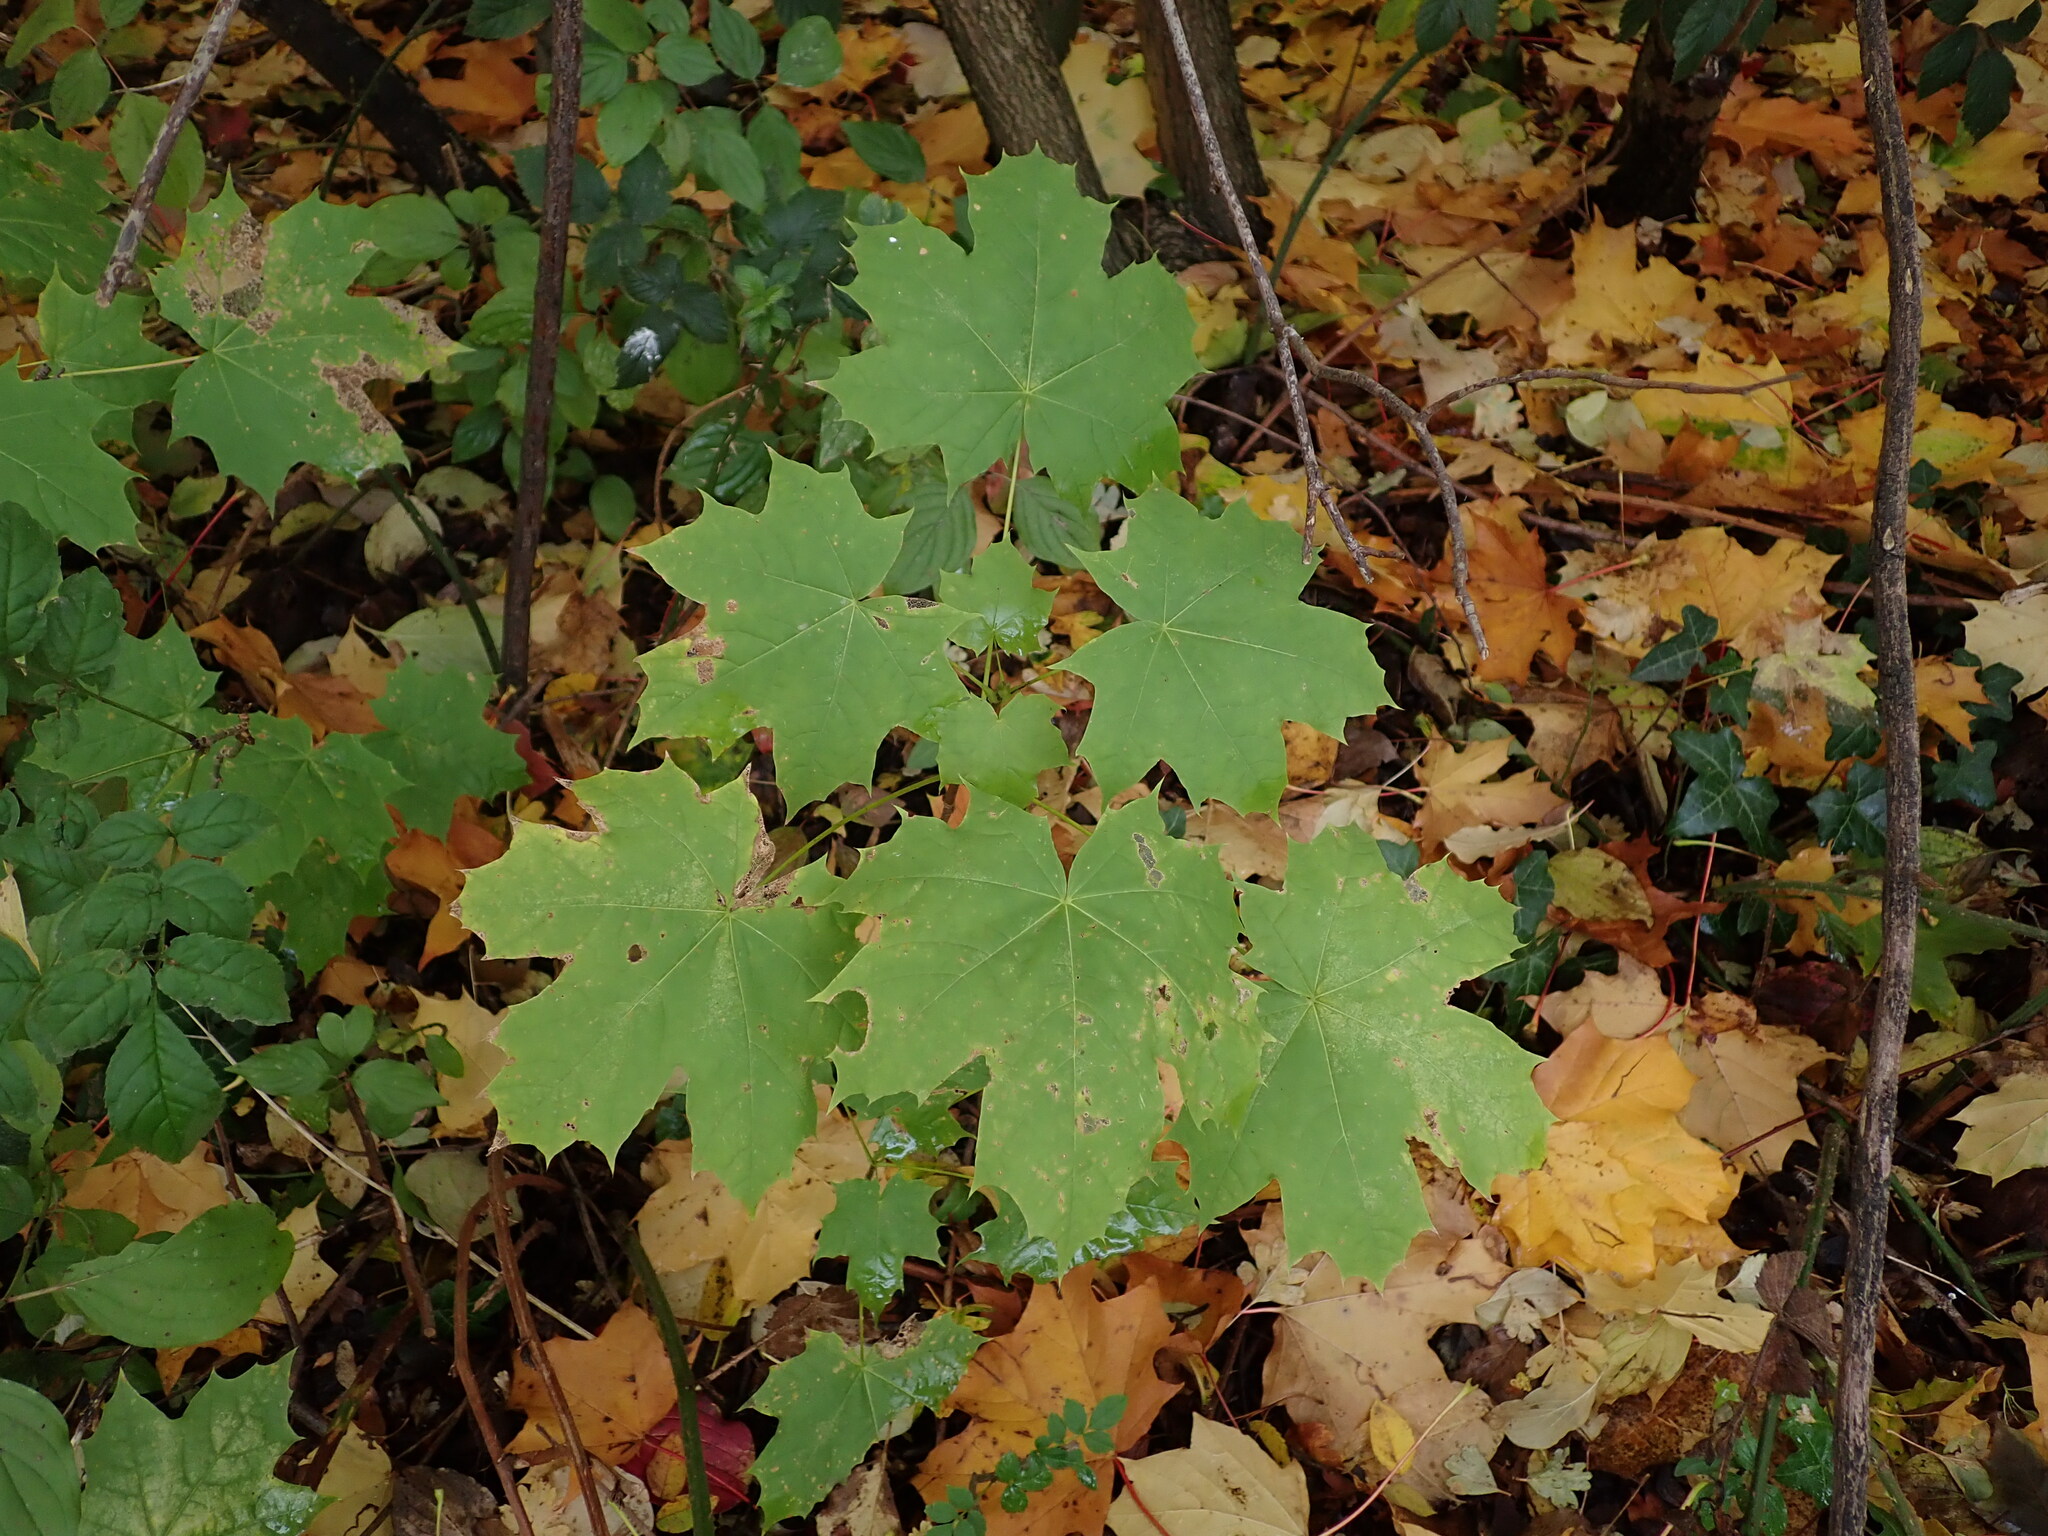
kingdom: Plantae
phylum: Tracheophyta
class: Magnoliopsida
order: Sapindales
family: Sapindaceae
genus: Acer
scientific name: Acer platanoides
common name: Norway maple
